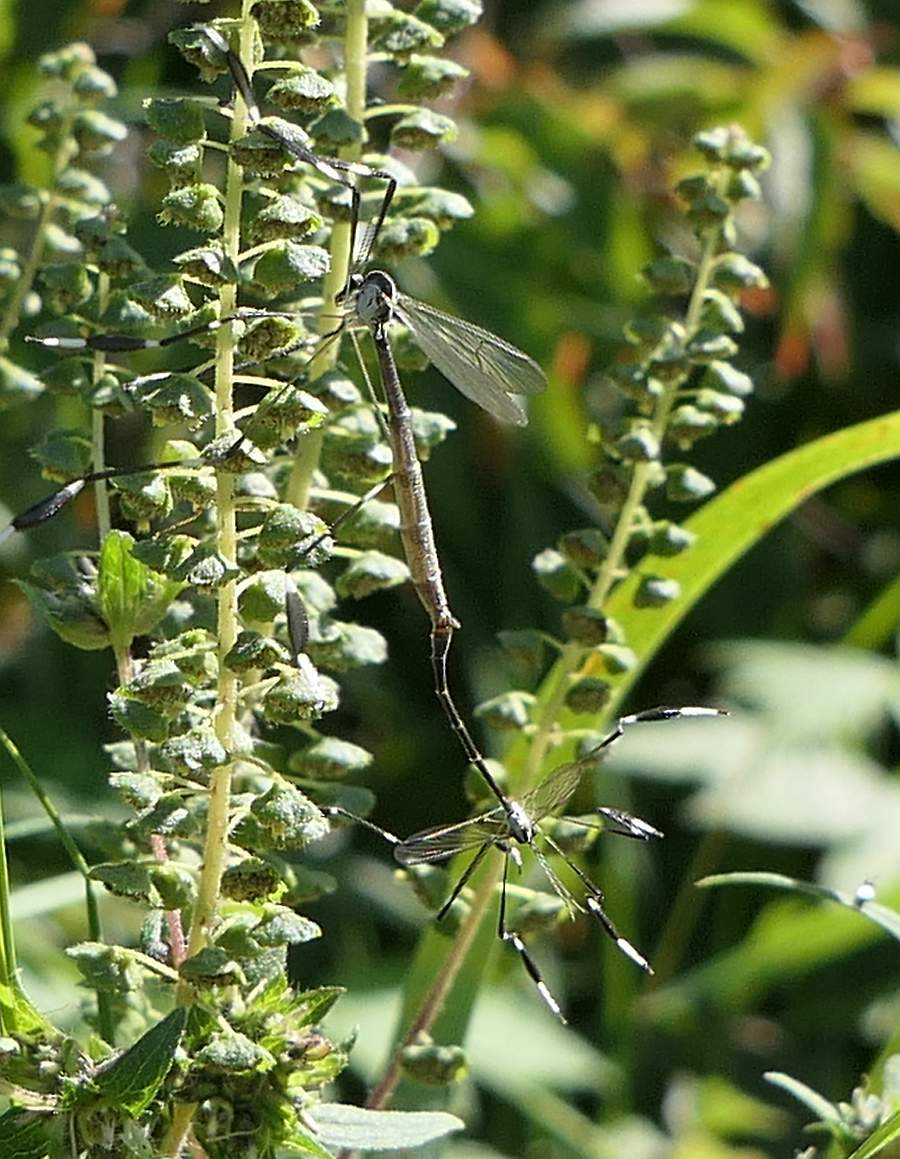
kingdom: Animalia
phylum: Arthropoda
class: Insecta
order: Diptera
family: Ptychopteridae
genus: Bittacomorpha
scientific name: Bittacomorpha clavipes
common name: Eastern phantom crane fly
